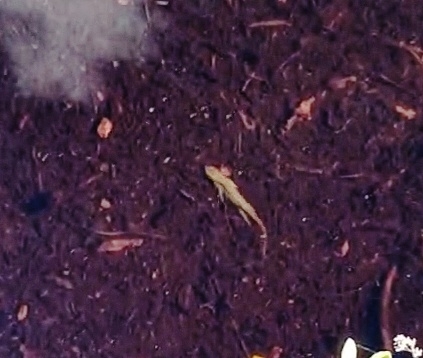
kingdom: Animalia
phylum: Chordata
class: Amphibia
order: Caudata
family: Salamandridae
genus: Notophthalmus
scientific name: Notophthalmus viridescens
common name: Eastern newt
